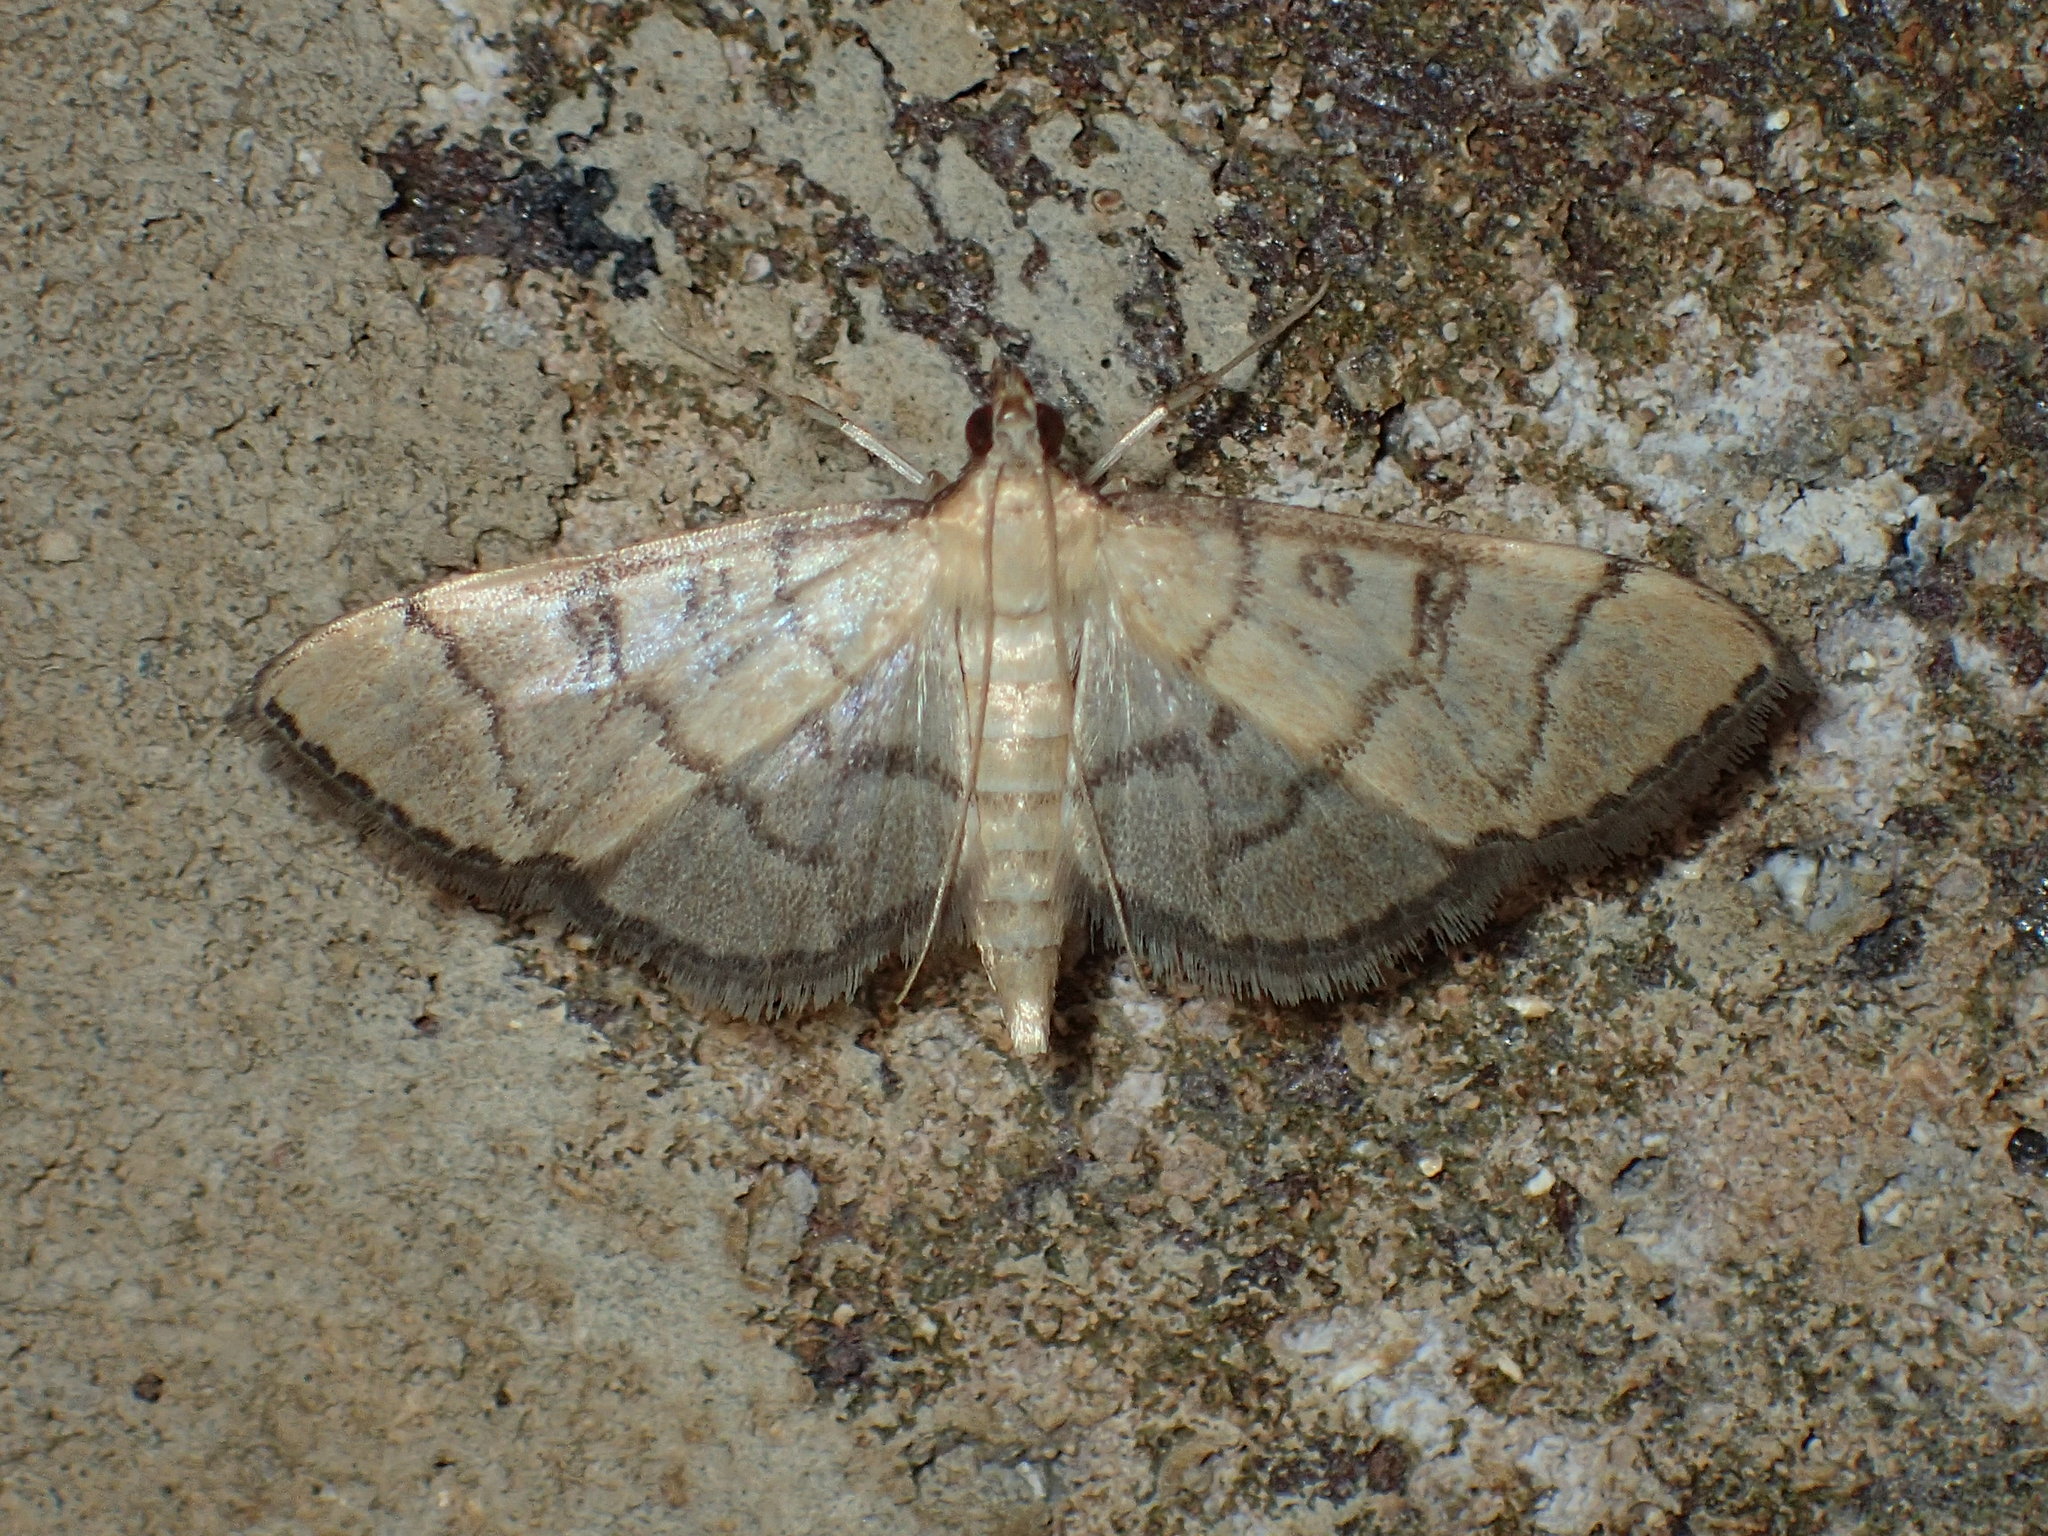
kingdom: Animalia
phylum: Arthropoda
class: Insecta
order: Lepidoptera
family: Crambidae
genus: Lamprosema
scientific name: Lamprosema Blepharomastix ranalis
